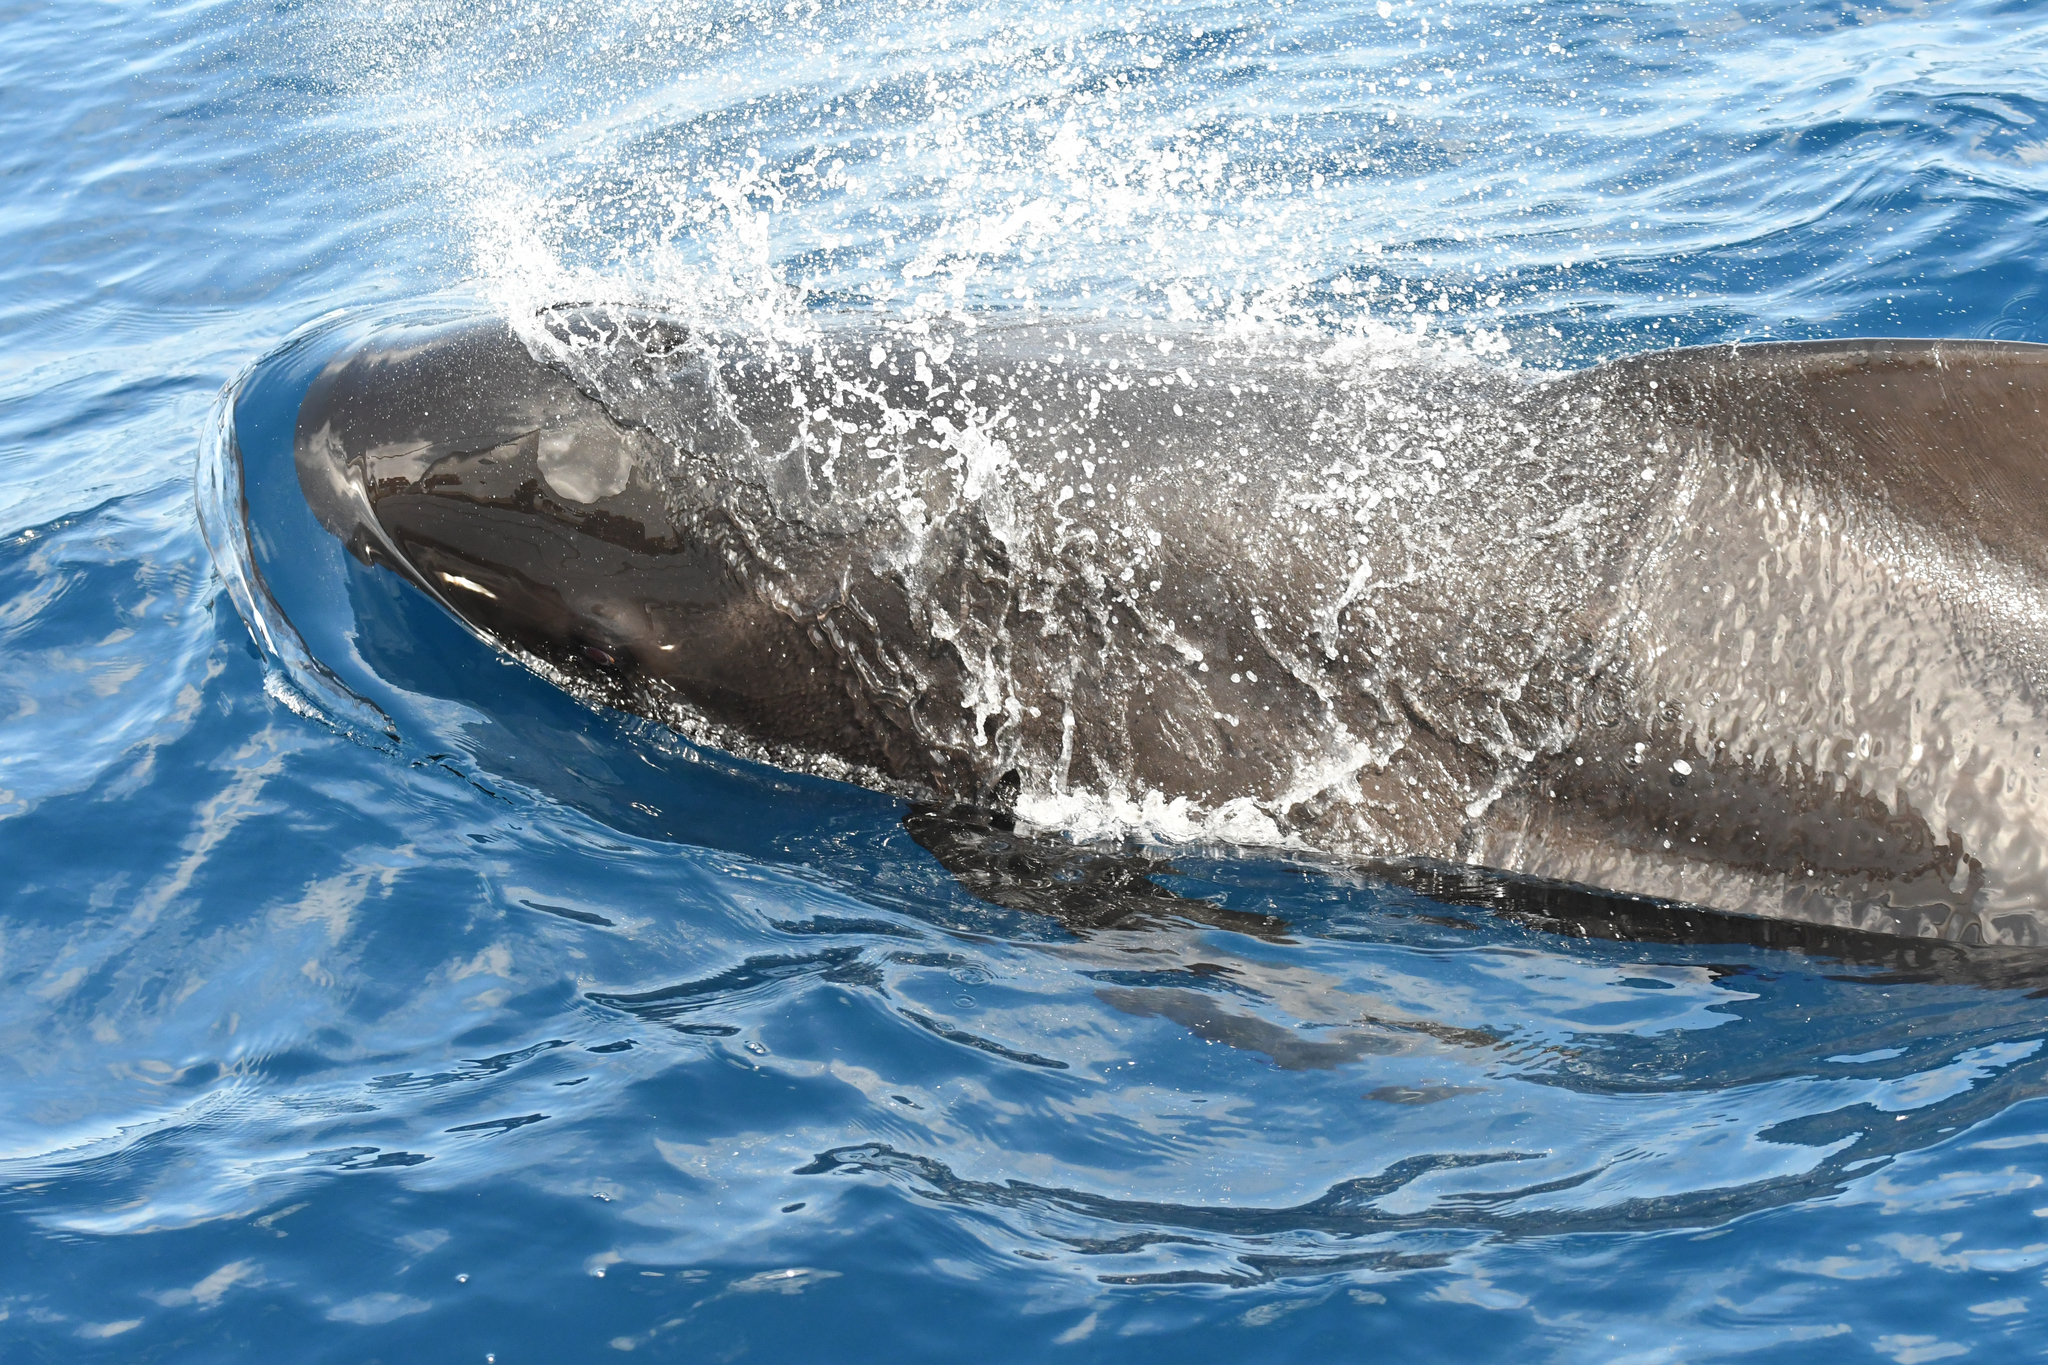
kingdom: Animalia
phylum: Chordata
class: Mammalia
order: Cetacea
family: Delphinidae
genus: Globicephala
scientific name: Globicephala melas
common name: Long-finned pilot whale
